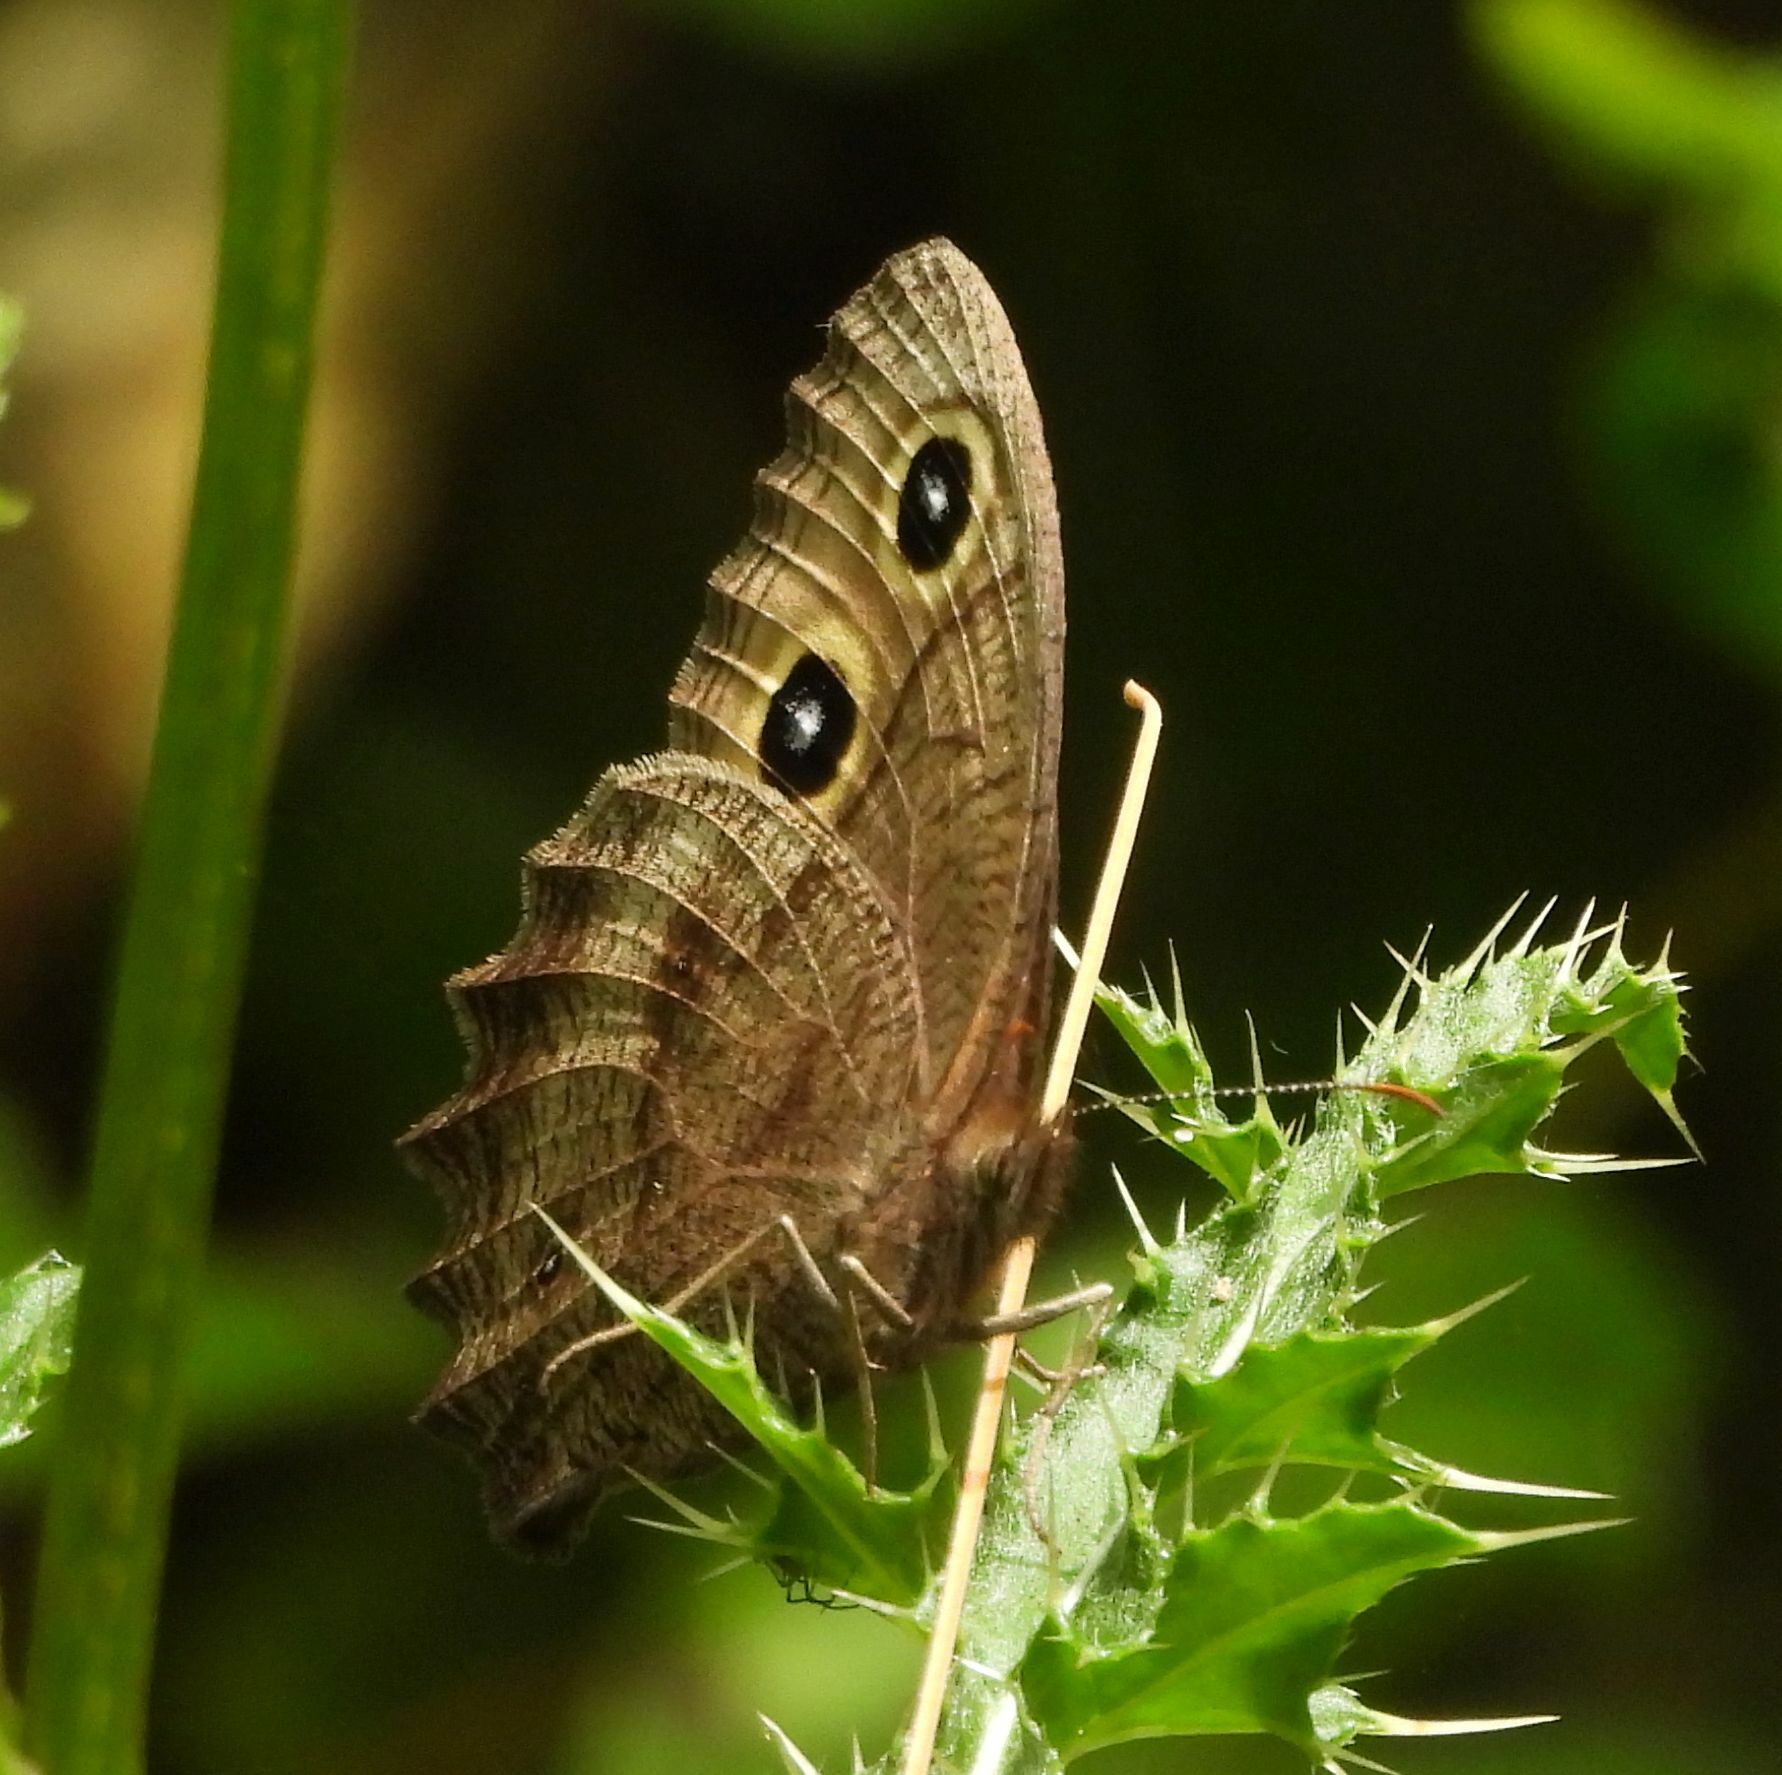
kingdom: Animalia
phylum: Arthropoda
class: Insecta
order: Lepidoptera
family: Nymphalidae
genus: Cercyonis
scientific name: Cercyonis pegala
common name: Common wood-nymph
